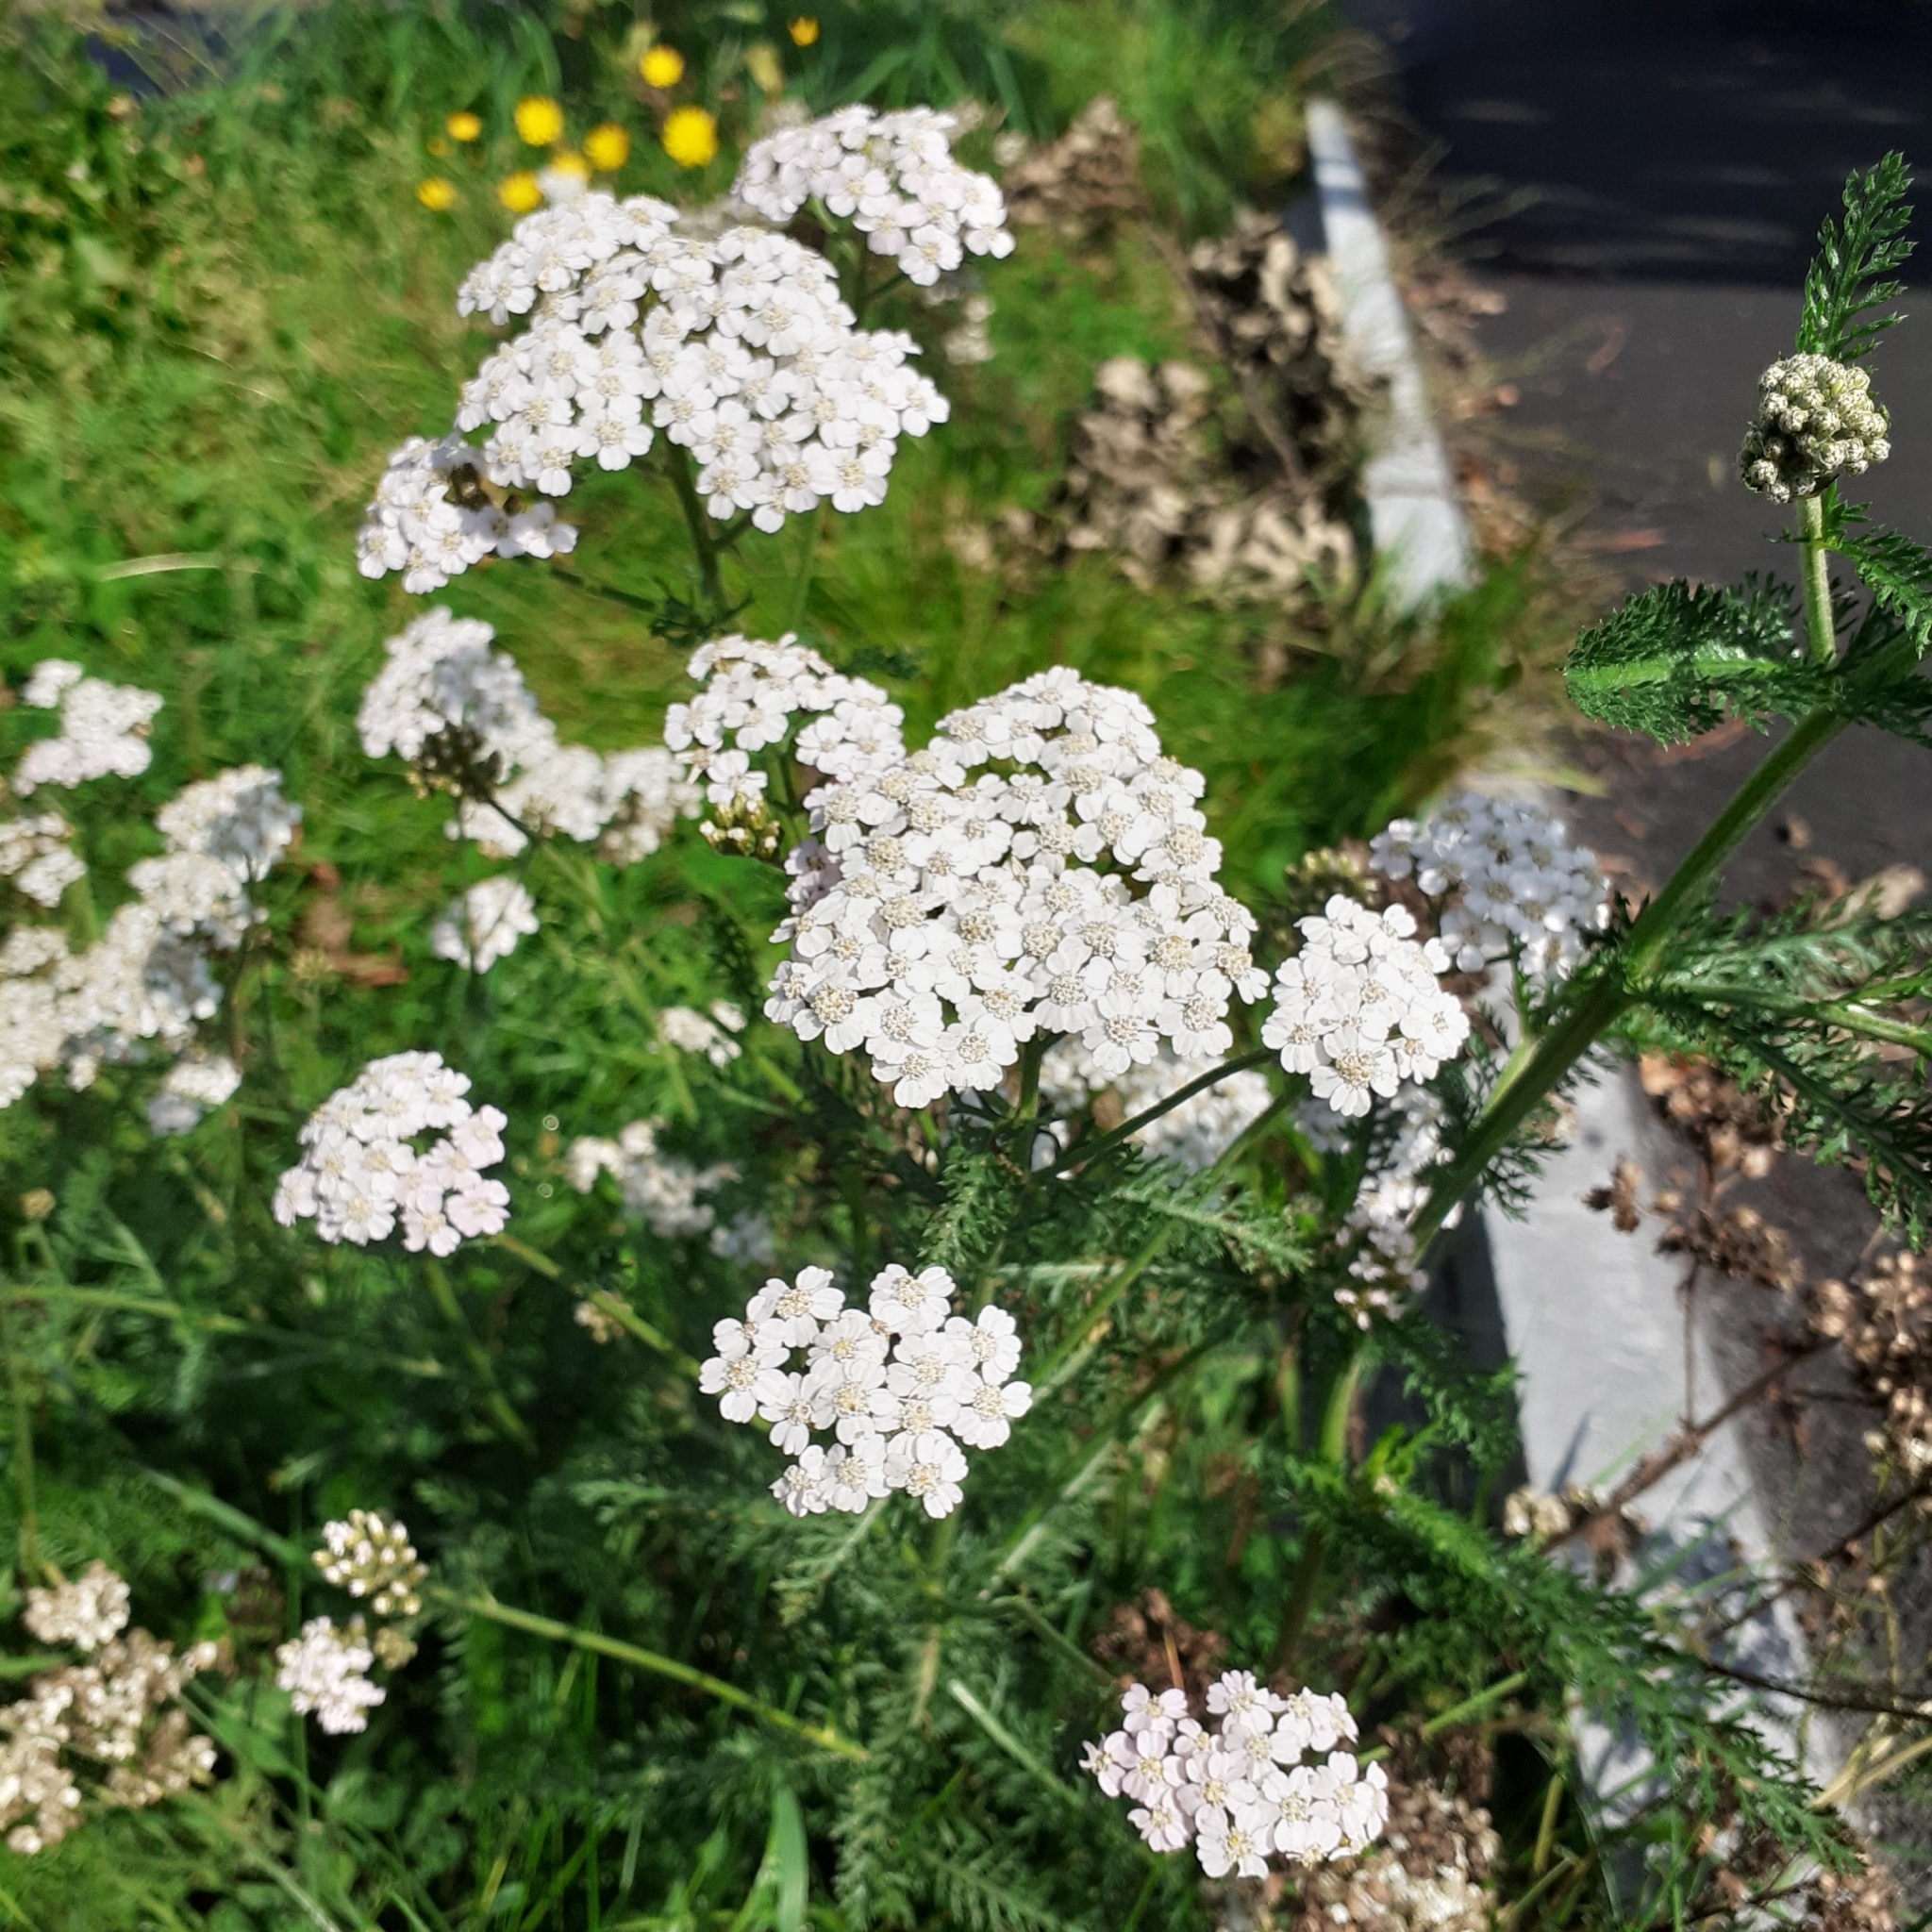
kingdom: Plantae
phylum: Tracheophyta
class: Magnoliopsida
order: Asterales
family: Asteraceae
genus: Achillea
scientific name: Achillea millefolium
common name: Yarrow
